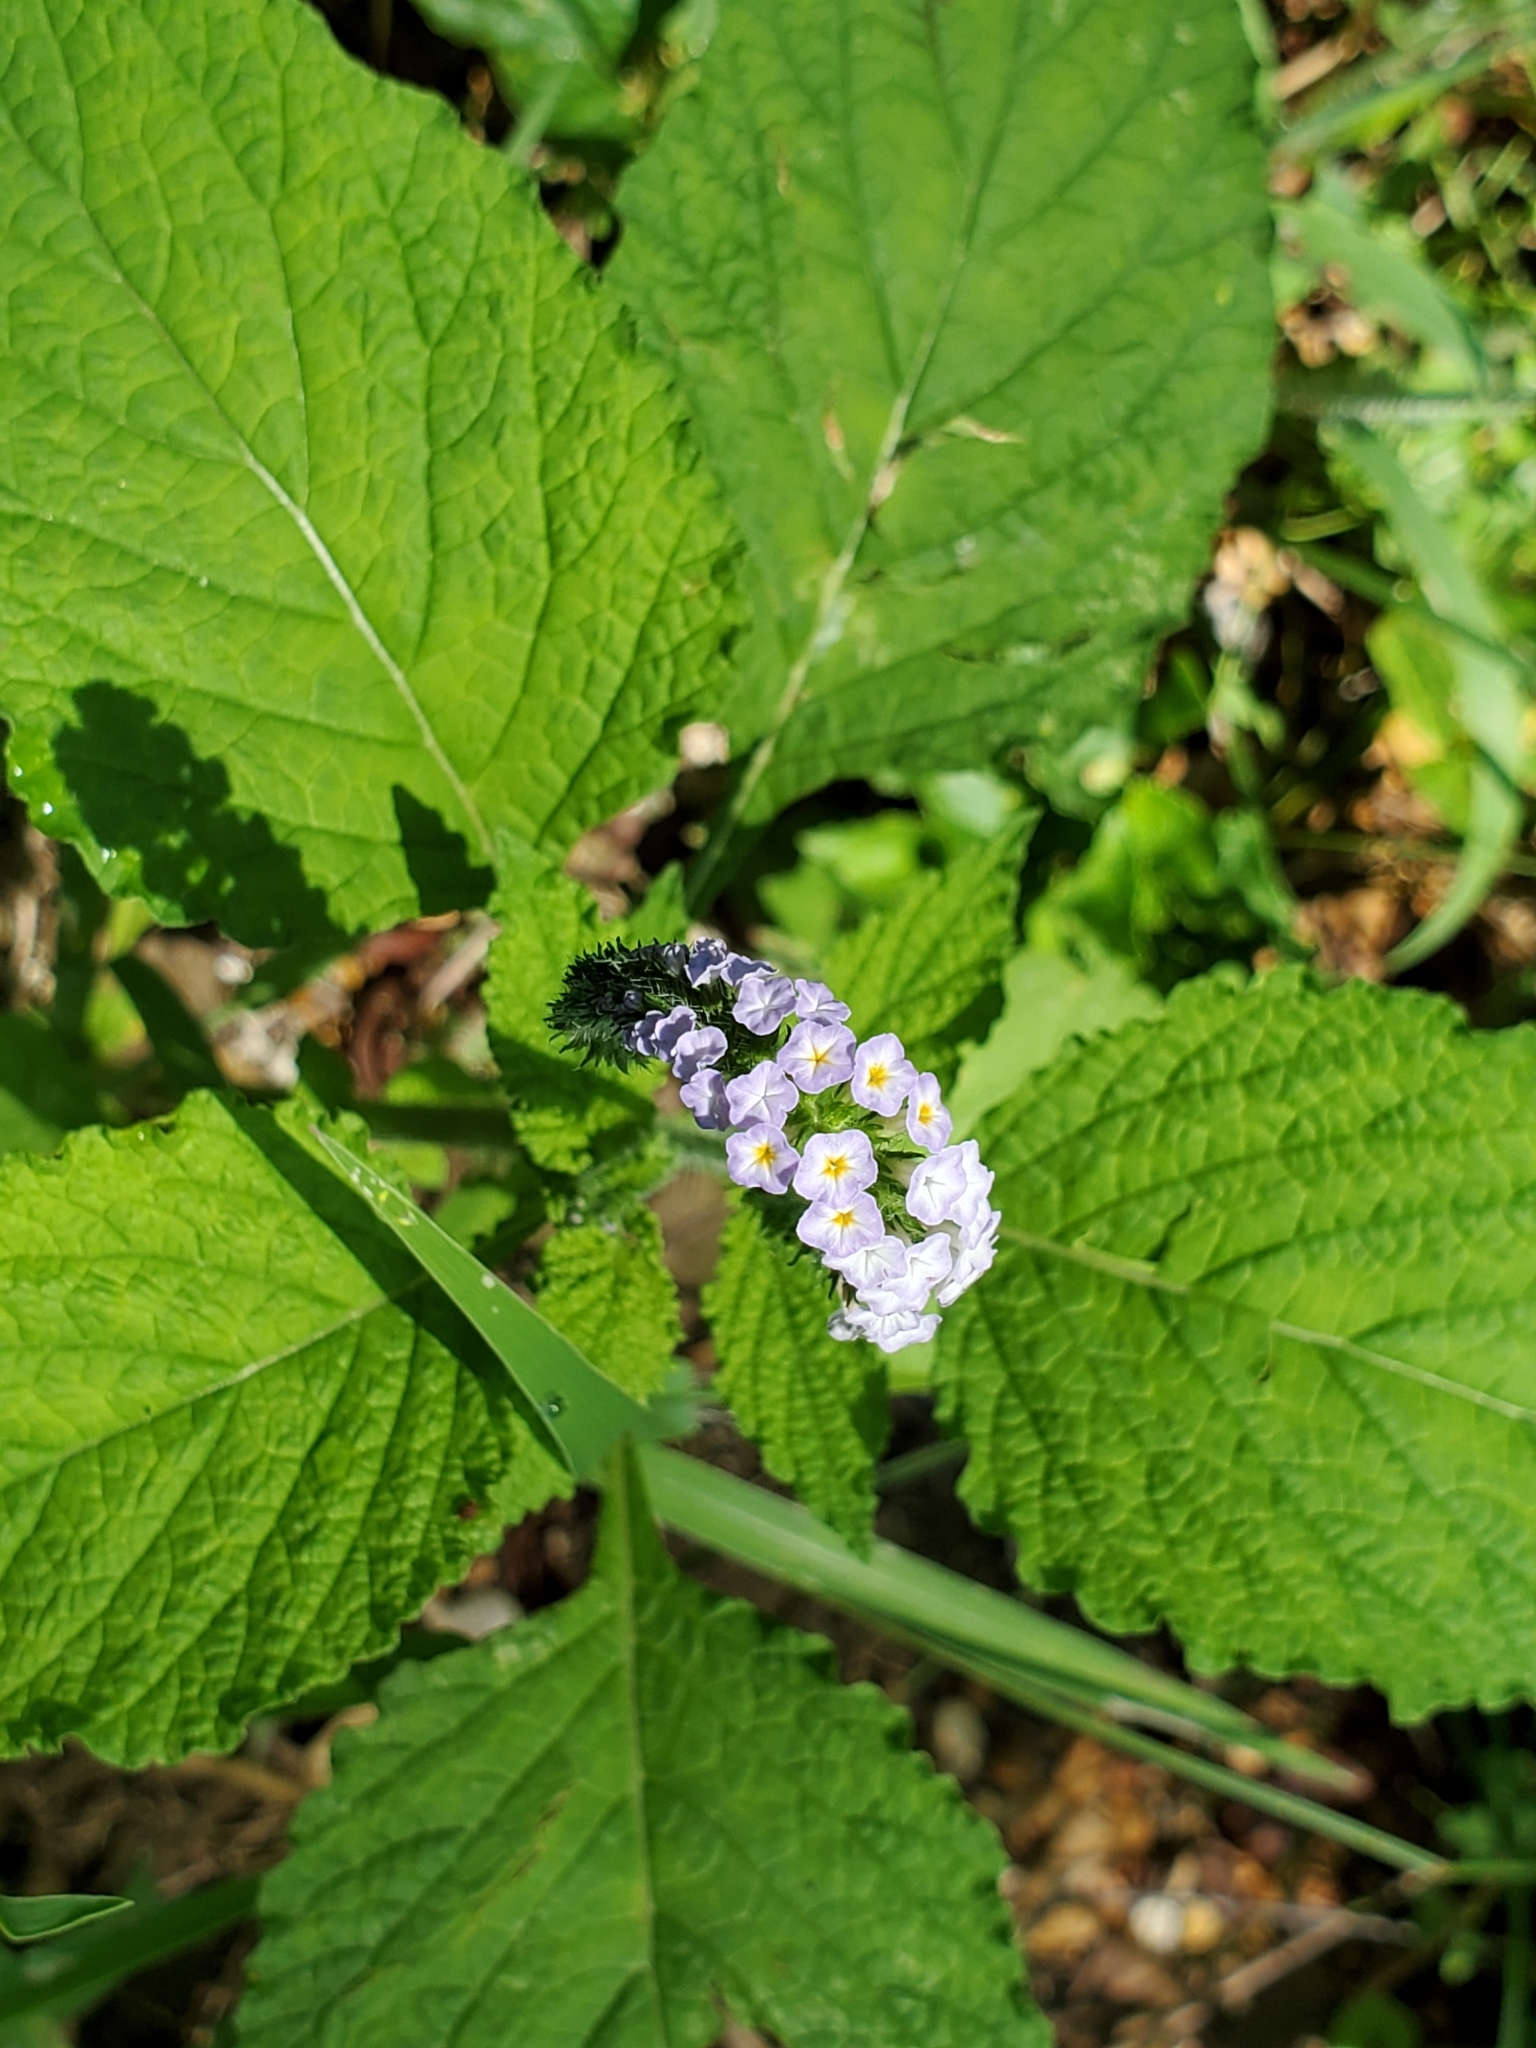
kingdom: Plantae
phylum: Tracheophyta
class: Magnoliopsida
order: Boraginales
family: Heliotropiaceae
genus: Heliotropium
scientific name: Heliotropium indicum
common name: Indian heliotrope
